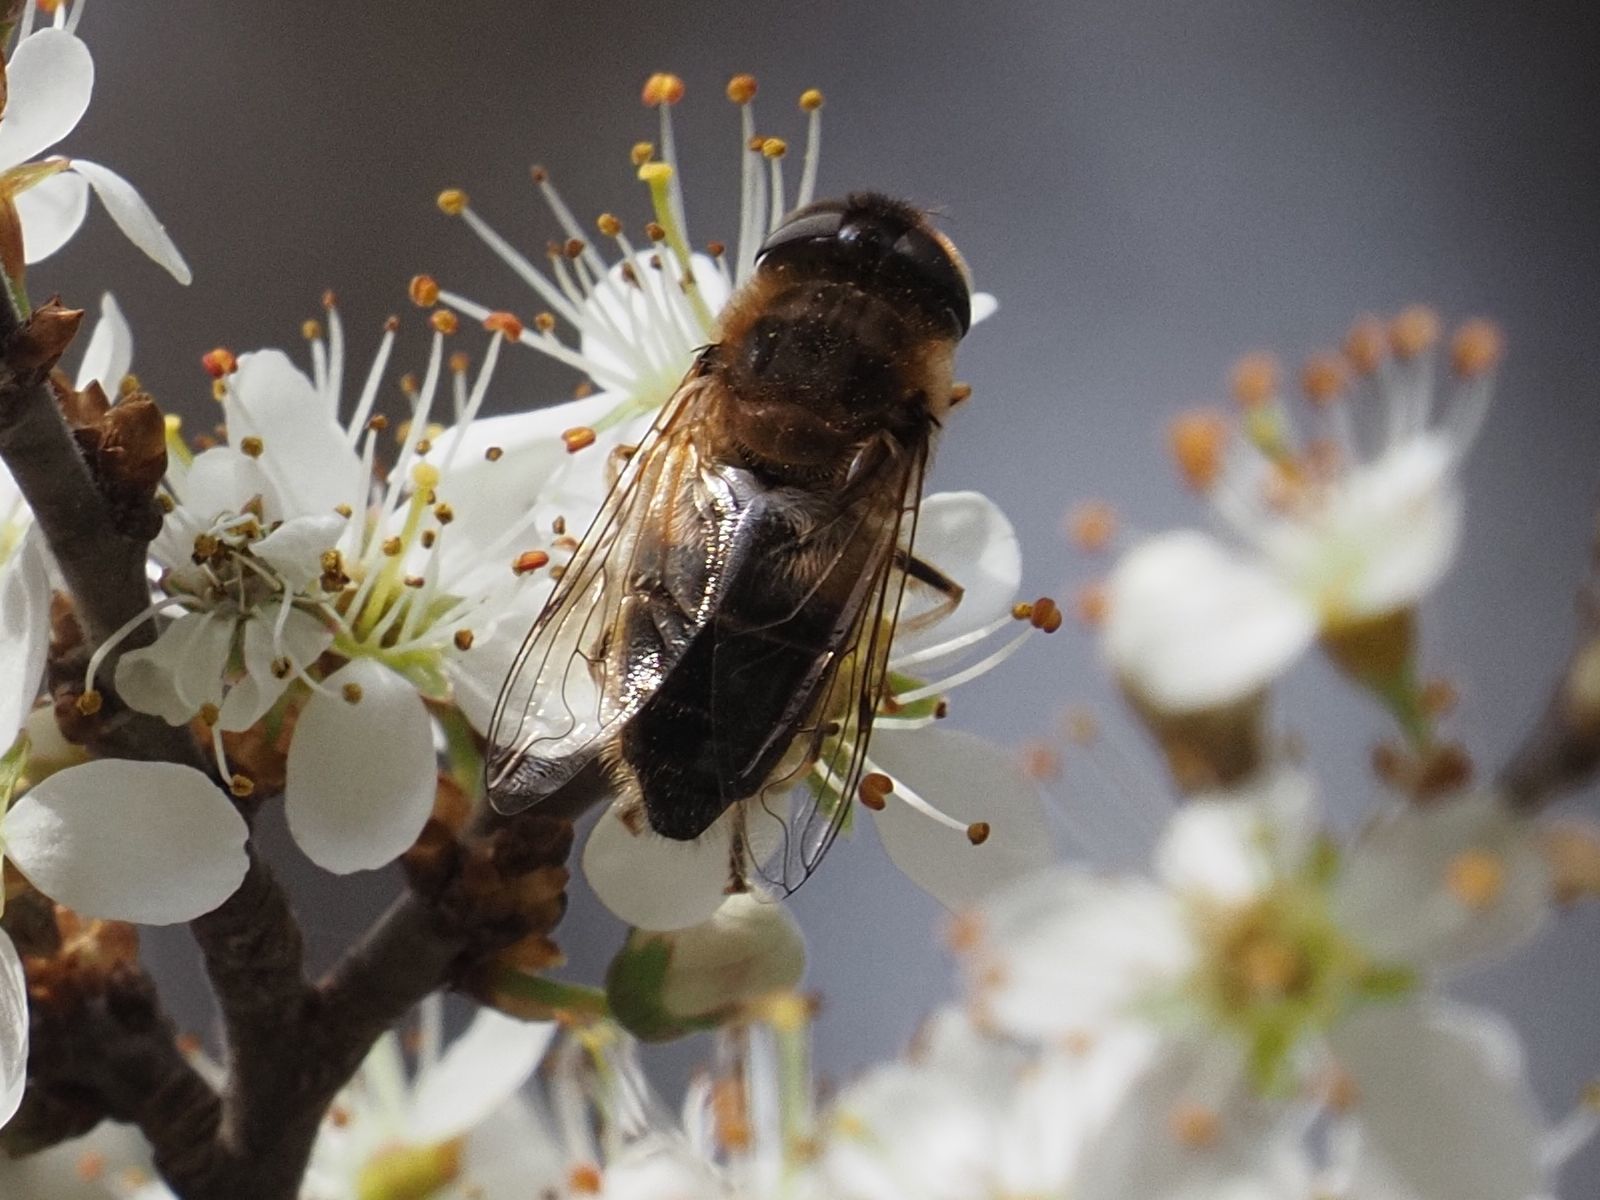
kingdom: Animalia
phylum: Arthropoda
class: Insecta
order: Diptera
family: Syrphidae
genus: Eristalis
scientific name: Eristalis pertinax
